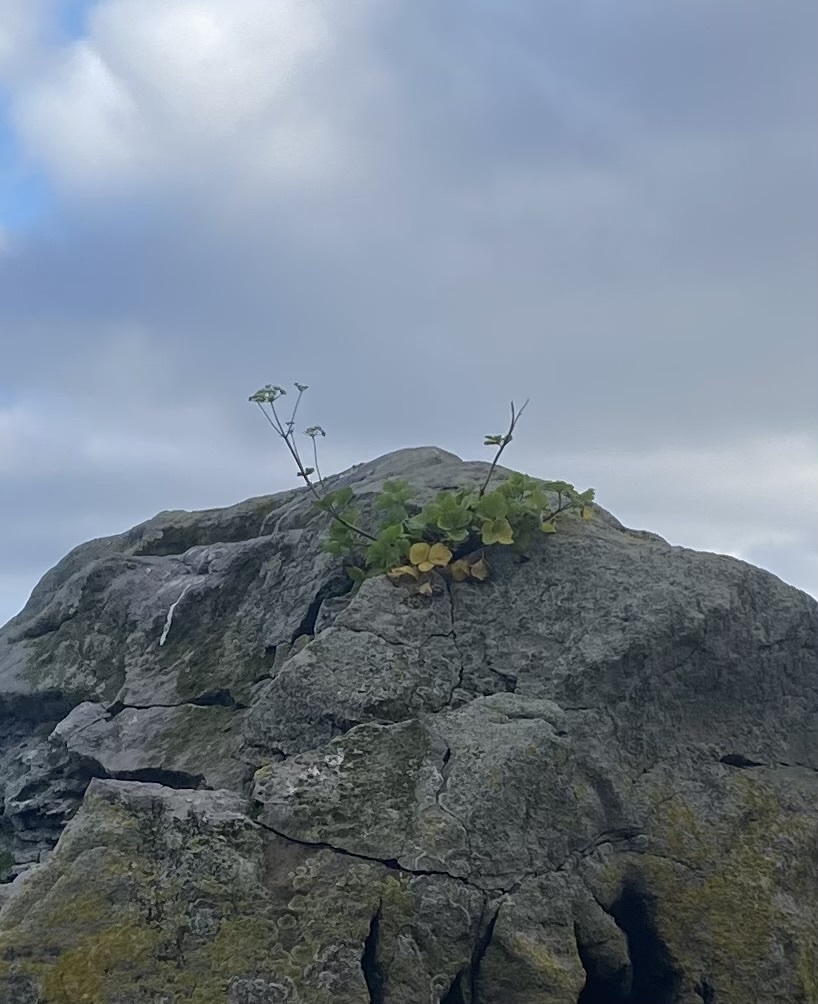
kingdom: Plantae
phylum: Tracheophyta
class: Magnoliopsida
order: Apiales
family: Apiaceae
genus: Ligusticum
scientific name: Ligusticum scothicum
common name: Beach lovage
